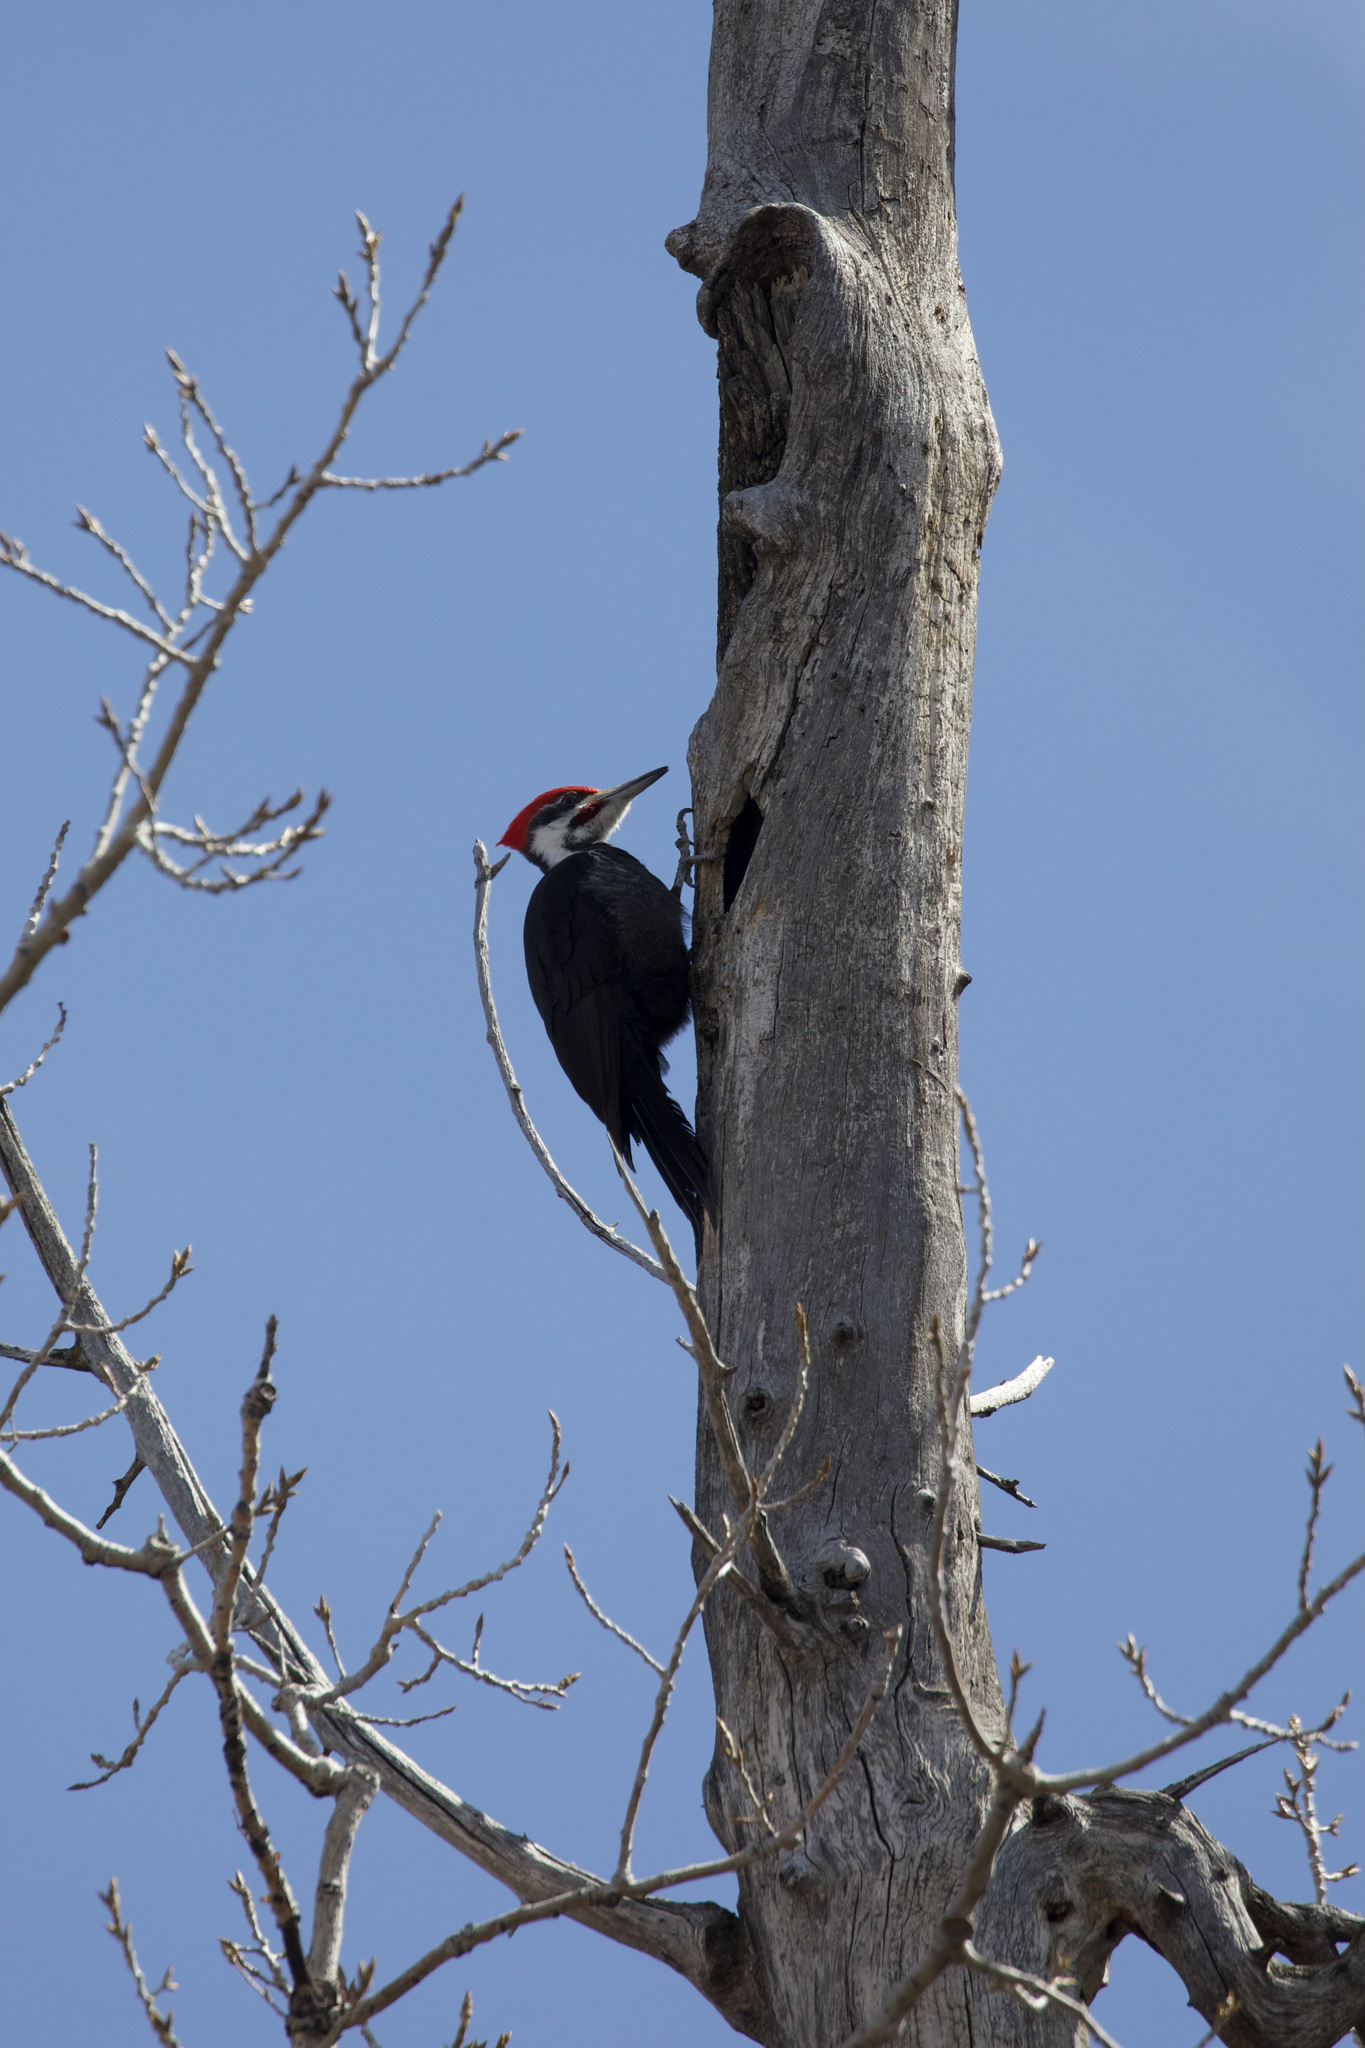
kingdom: Animalia
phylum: Chordata
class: Aves
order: Piciformes
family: Picidae
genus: Dryocopus
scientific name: Dryocopus pileatus
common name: Pileated woodpecker
